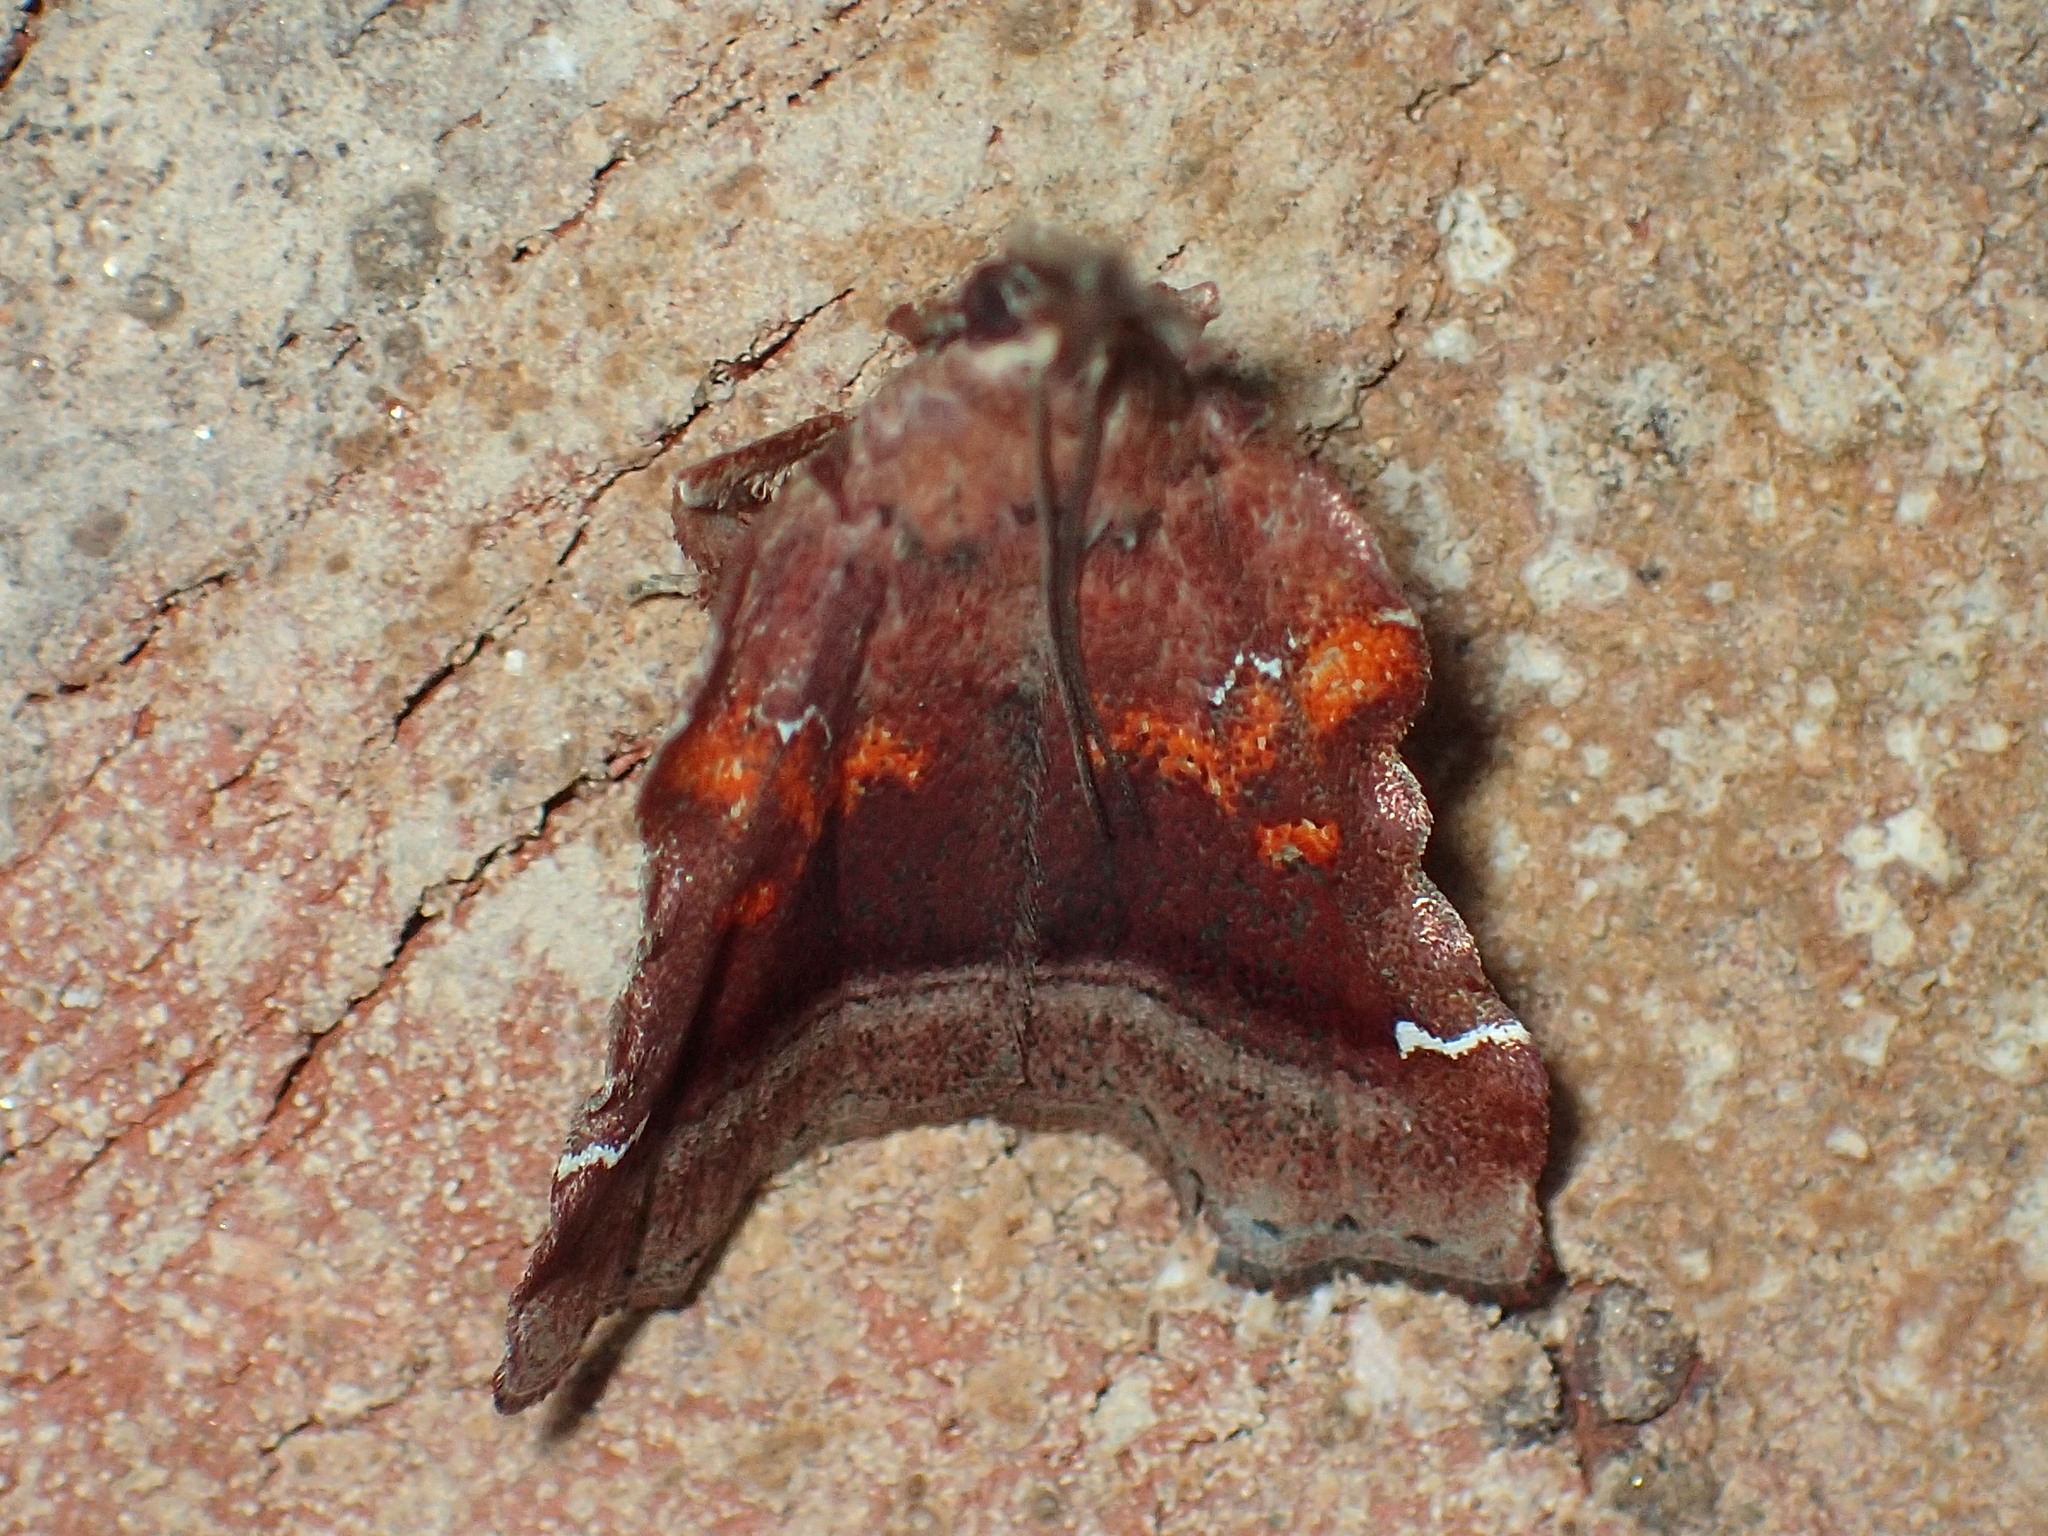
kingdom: Animalia
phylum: Arthropoda
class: Insecta
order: Lepidoptera
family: Pyralidae
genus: Clydonopteron
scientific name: Clydonopteron sacculana
